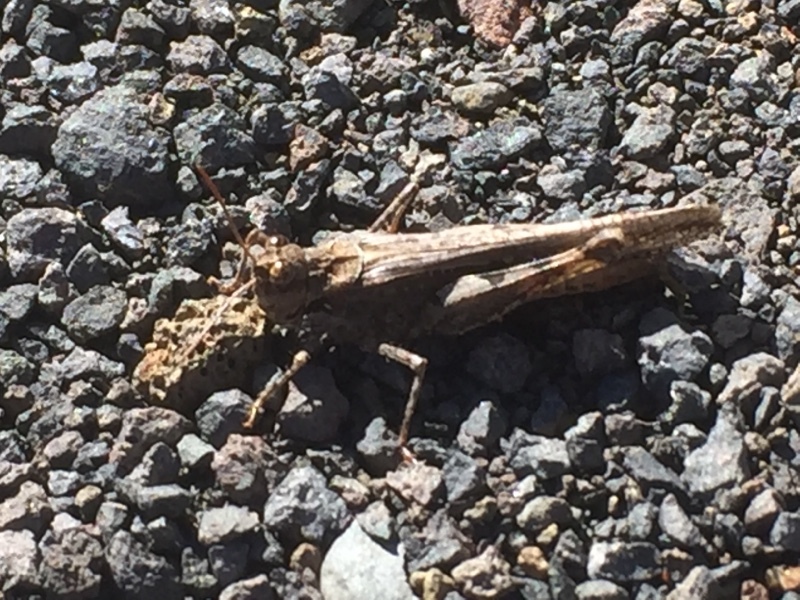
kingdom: Animalia
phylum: Arthropoda
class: Insecta
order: Orthoptera
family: Acrididae
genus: Acrotylus
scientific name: Acrotylus insubricus
